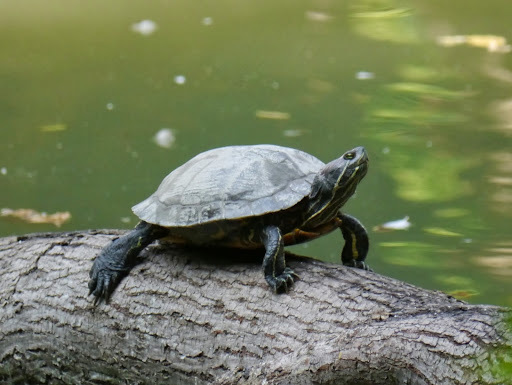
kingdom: Animalia
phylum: Chordata
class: Testudines
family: Emydidae
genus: Trachemys
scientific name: Trachemys scripta
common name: Slider
